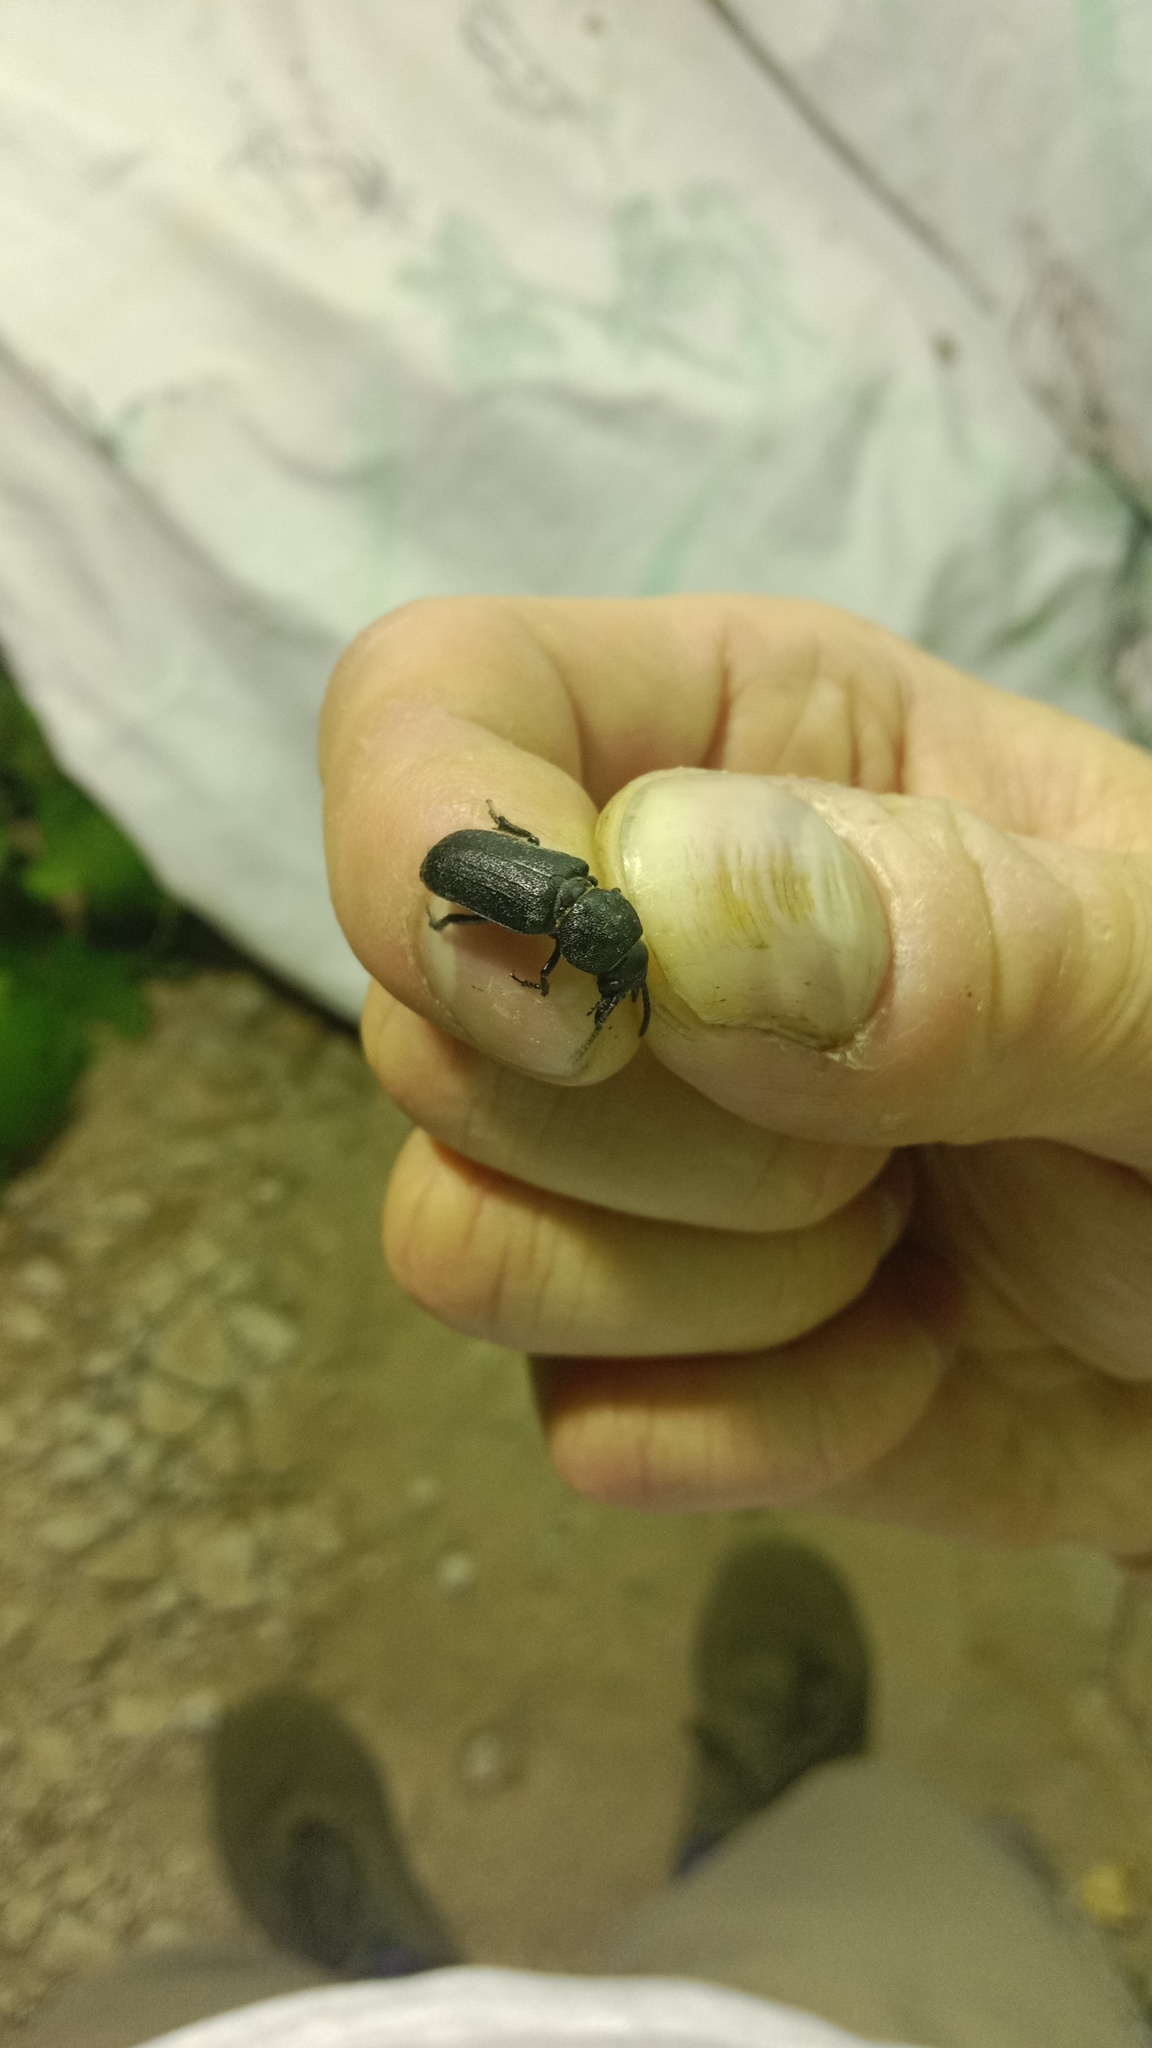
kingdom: Animalia
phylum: Arthropoda
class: Insecta
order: Coleoptera
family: Cerambycidae
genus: Spondylis
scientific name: Spondylis buprestoides
